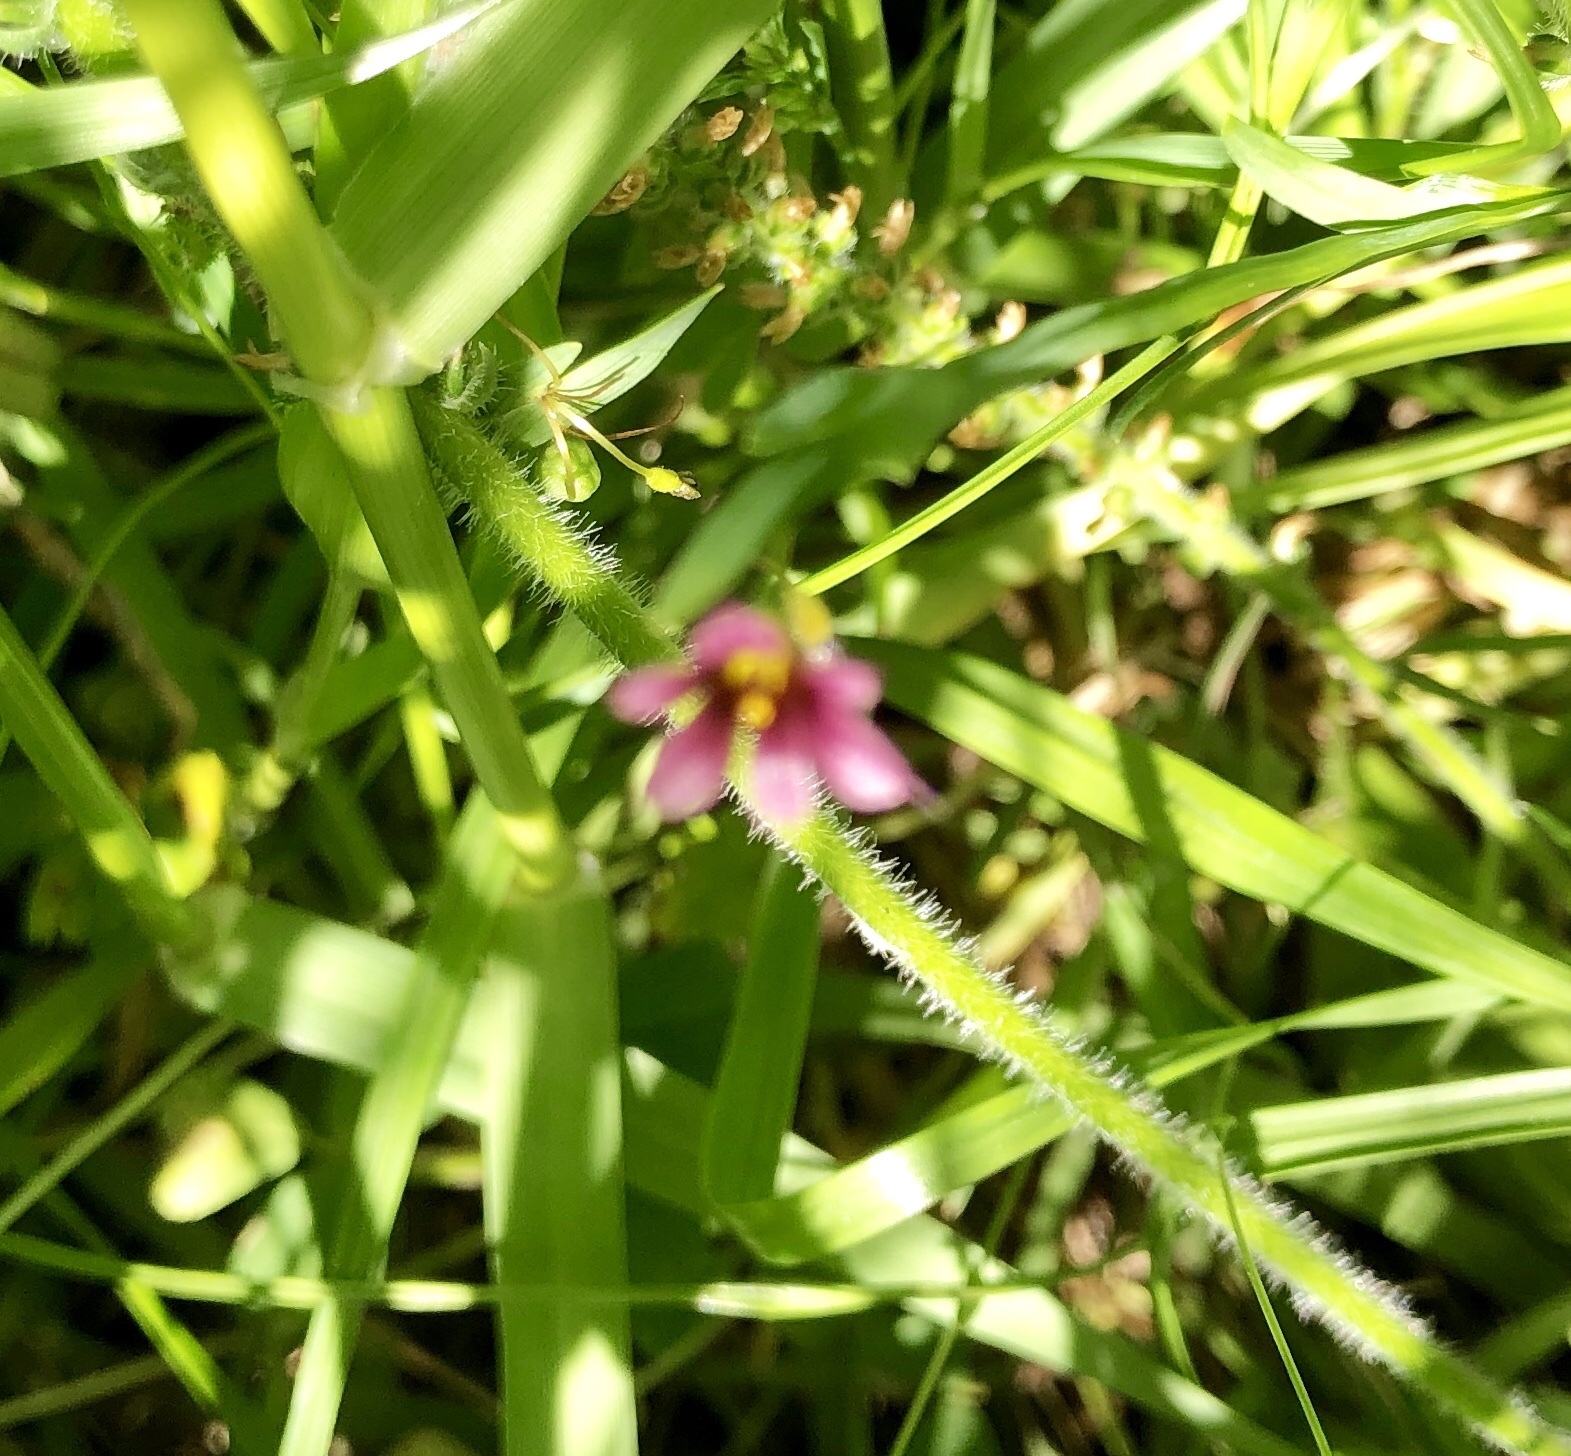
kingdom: Plantae
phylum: Tracheophyta
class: Liliopsida
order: Asparagales
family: Iridaceae
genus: Sisyrinchium
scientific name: Sisyrinchium minus
